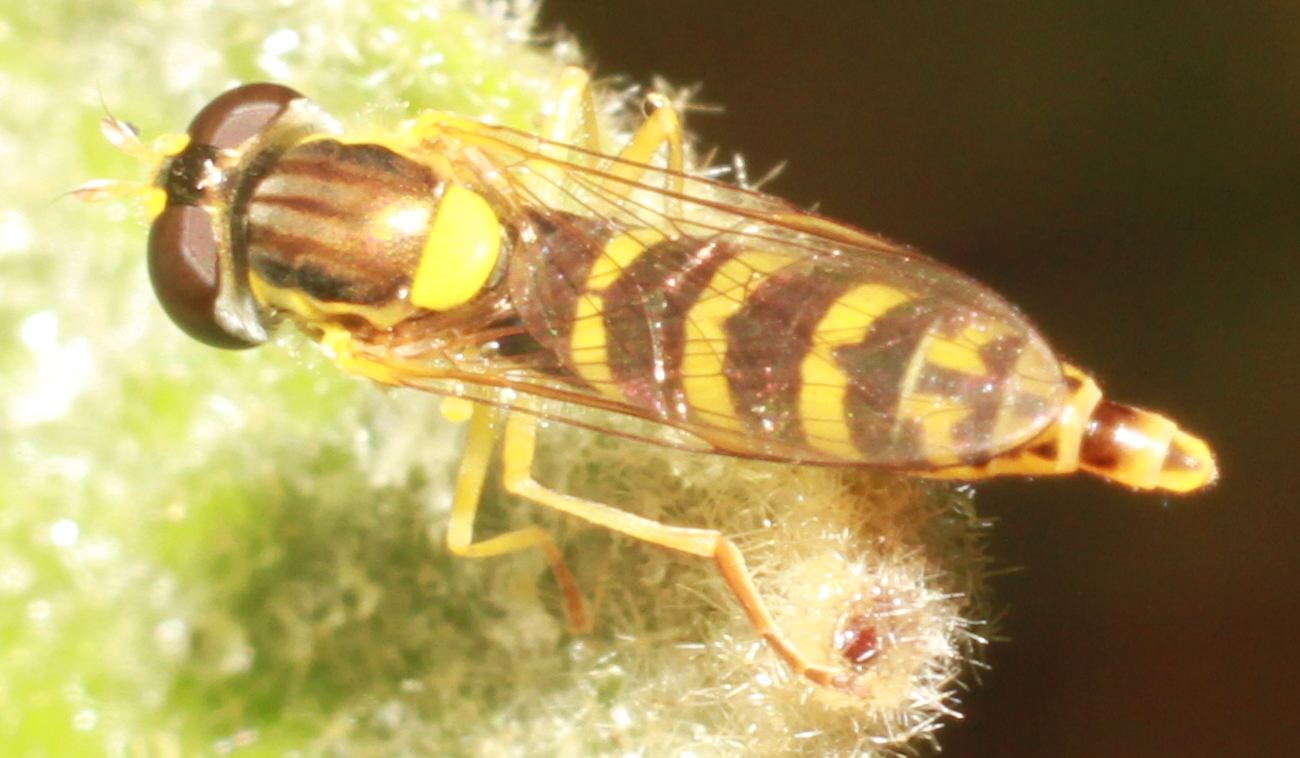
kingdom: Animalia
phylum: Arthropoda
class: Insecta
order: Diptera
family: Syrphidae
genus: Sphaerophoria
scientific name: Sphaerophoria
